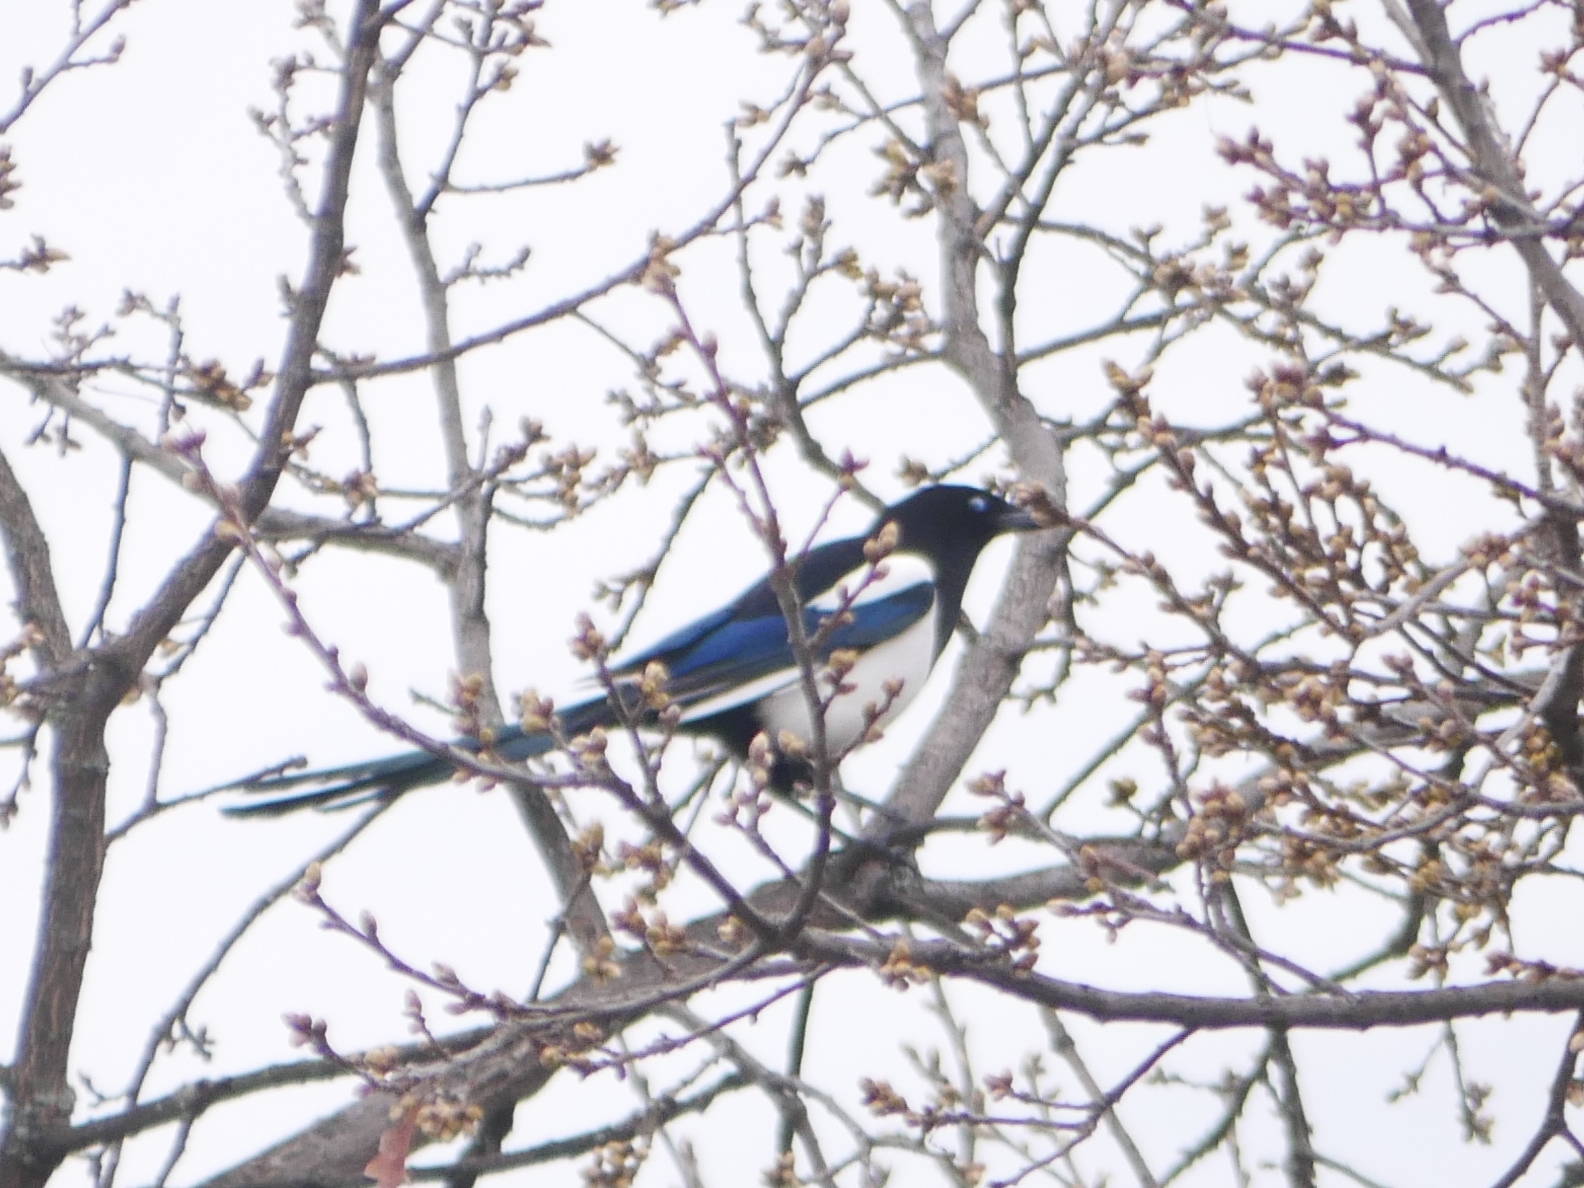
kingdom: Animalia
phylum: Chordata
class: Aves
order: Passeriformes
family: Corvidae
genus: Pica
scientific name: Pica pica
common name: Eurasian magpie
